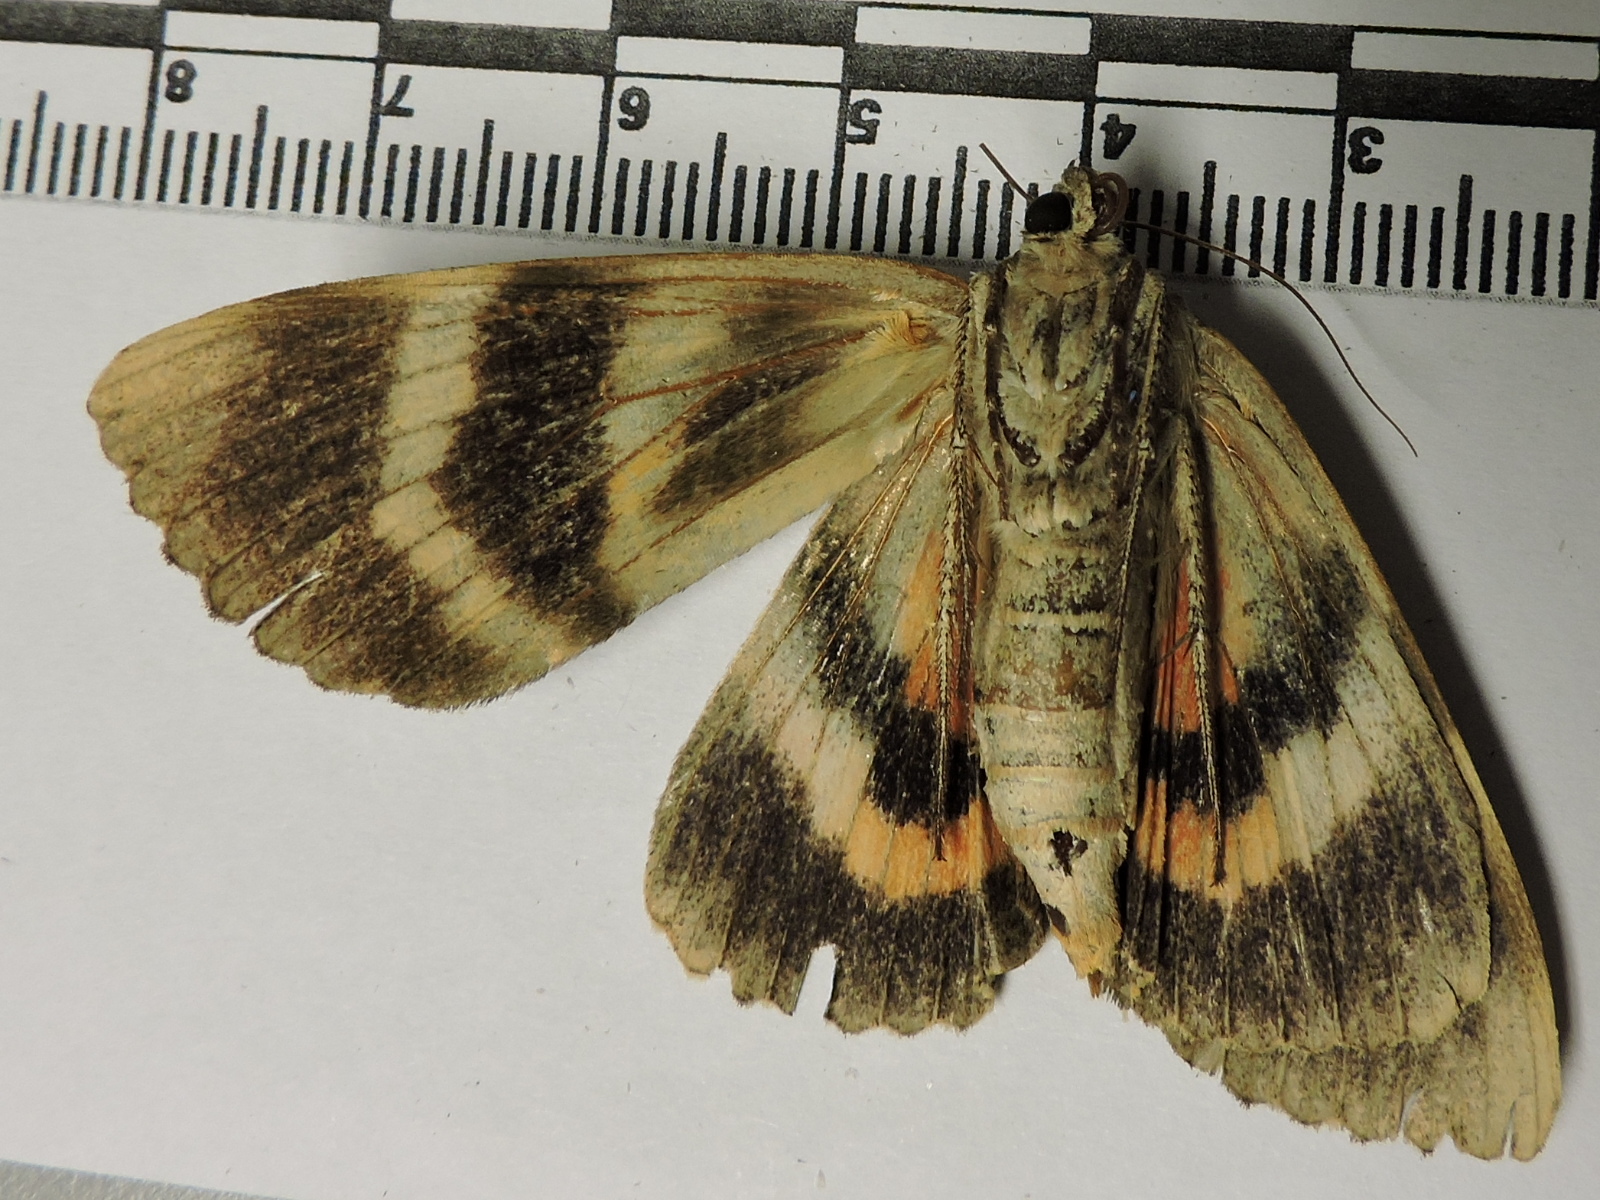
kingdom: Animalia
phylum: Arthropoda
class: Insecta
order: Lepidoptera
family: Erebidae
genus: Catocala
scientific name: Catocala ilia
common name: Ilia underwing
